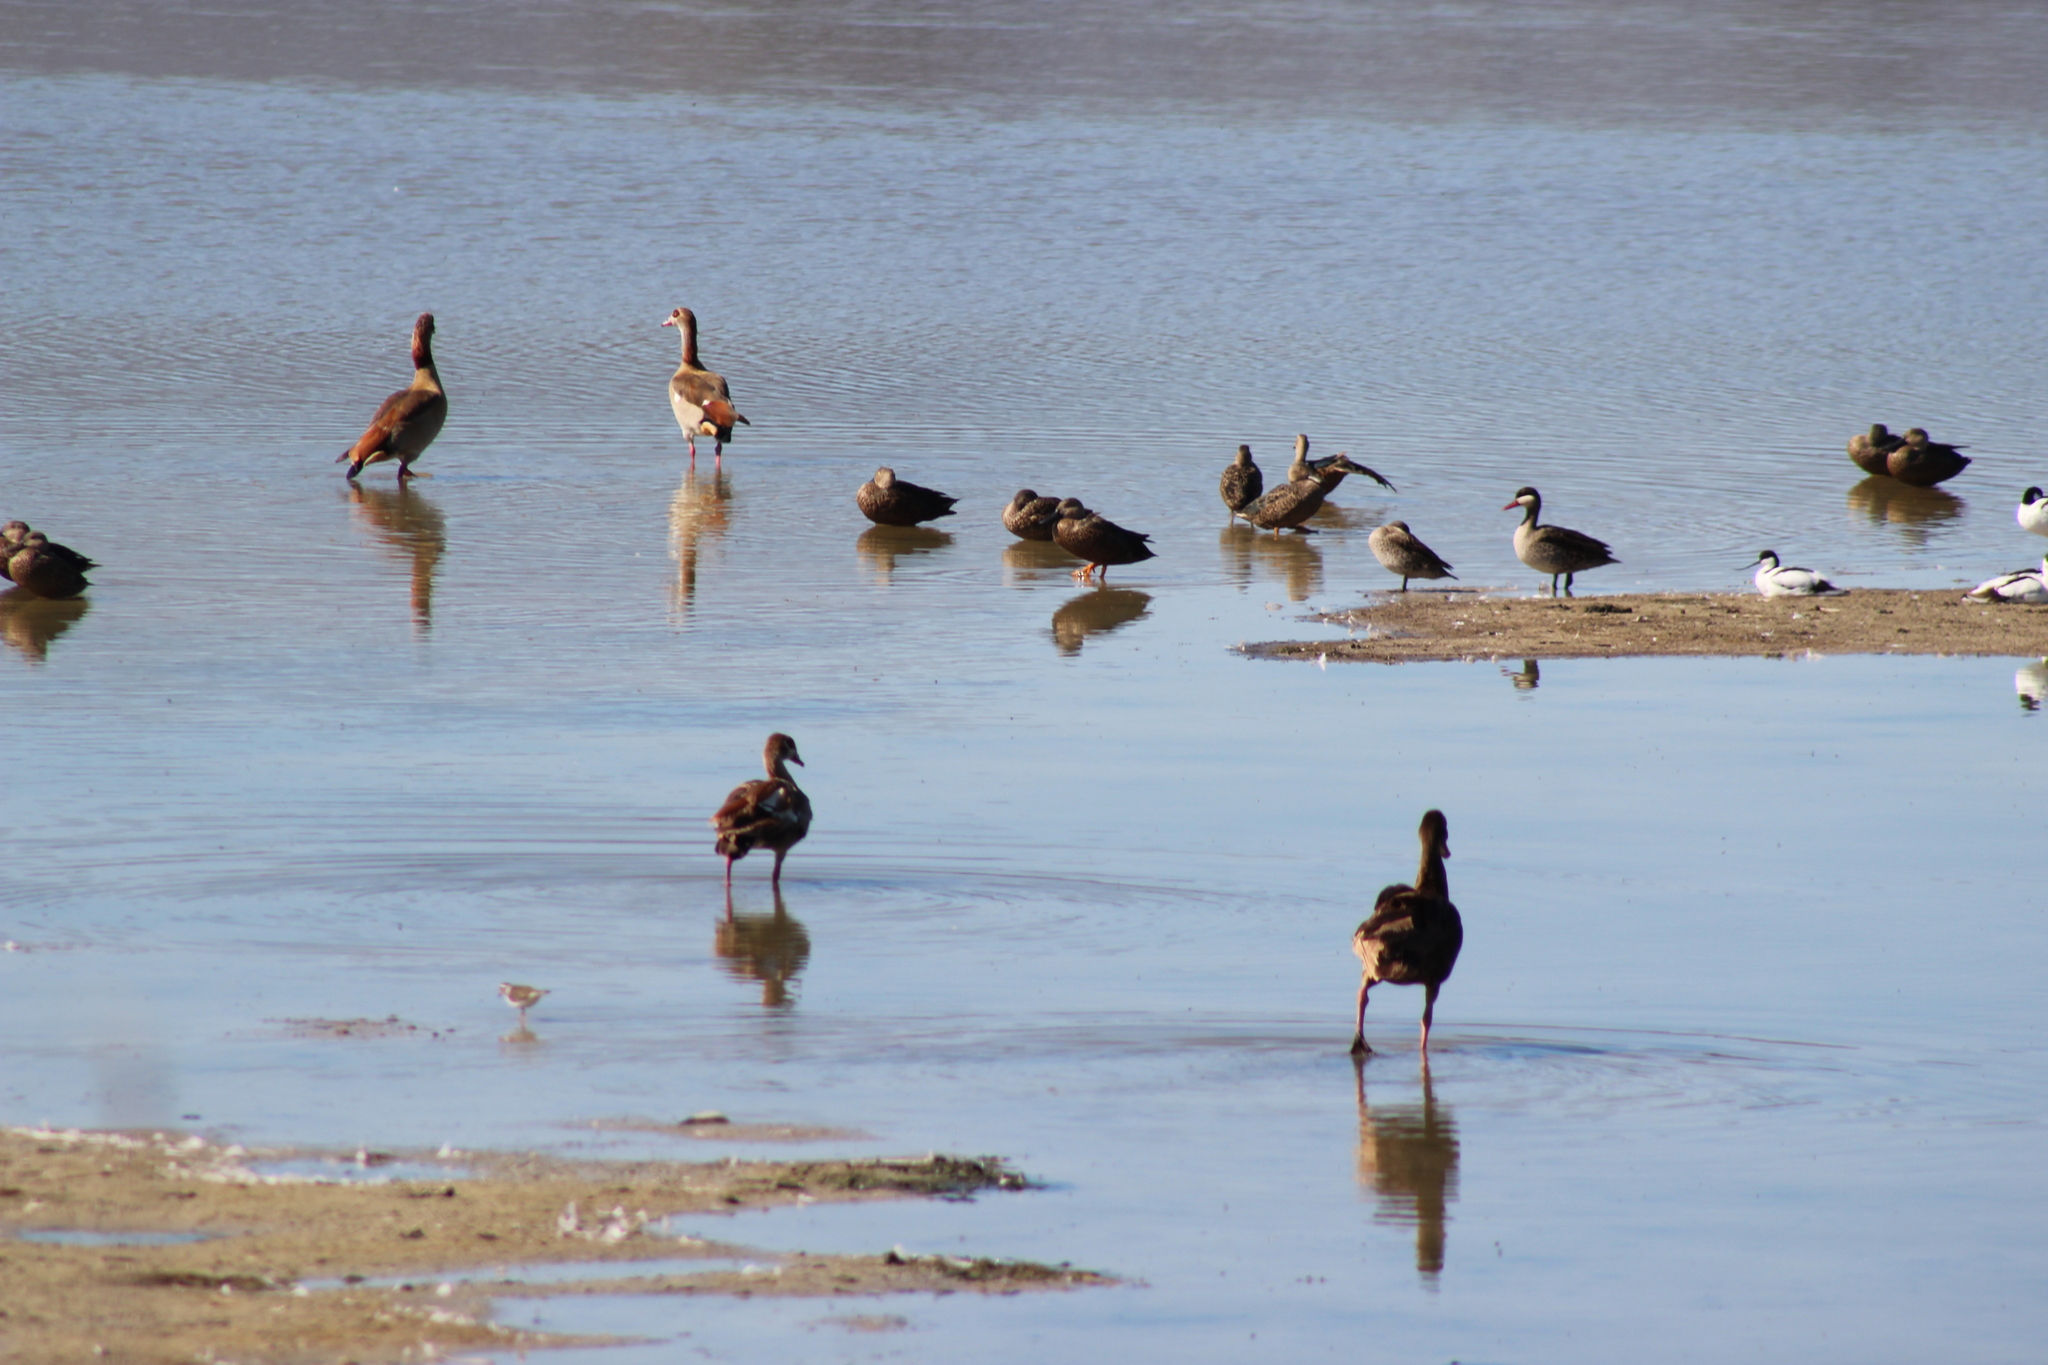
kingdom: Animalia
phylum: Chordata
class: Aves
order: Anseriformes
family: Anatidae
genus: Anas
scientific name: Anas erythrorhyncha
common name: Red-billed teal
